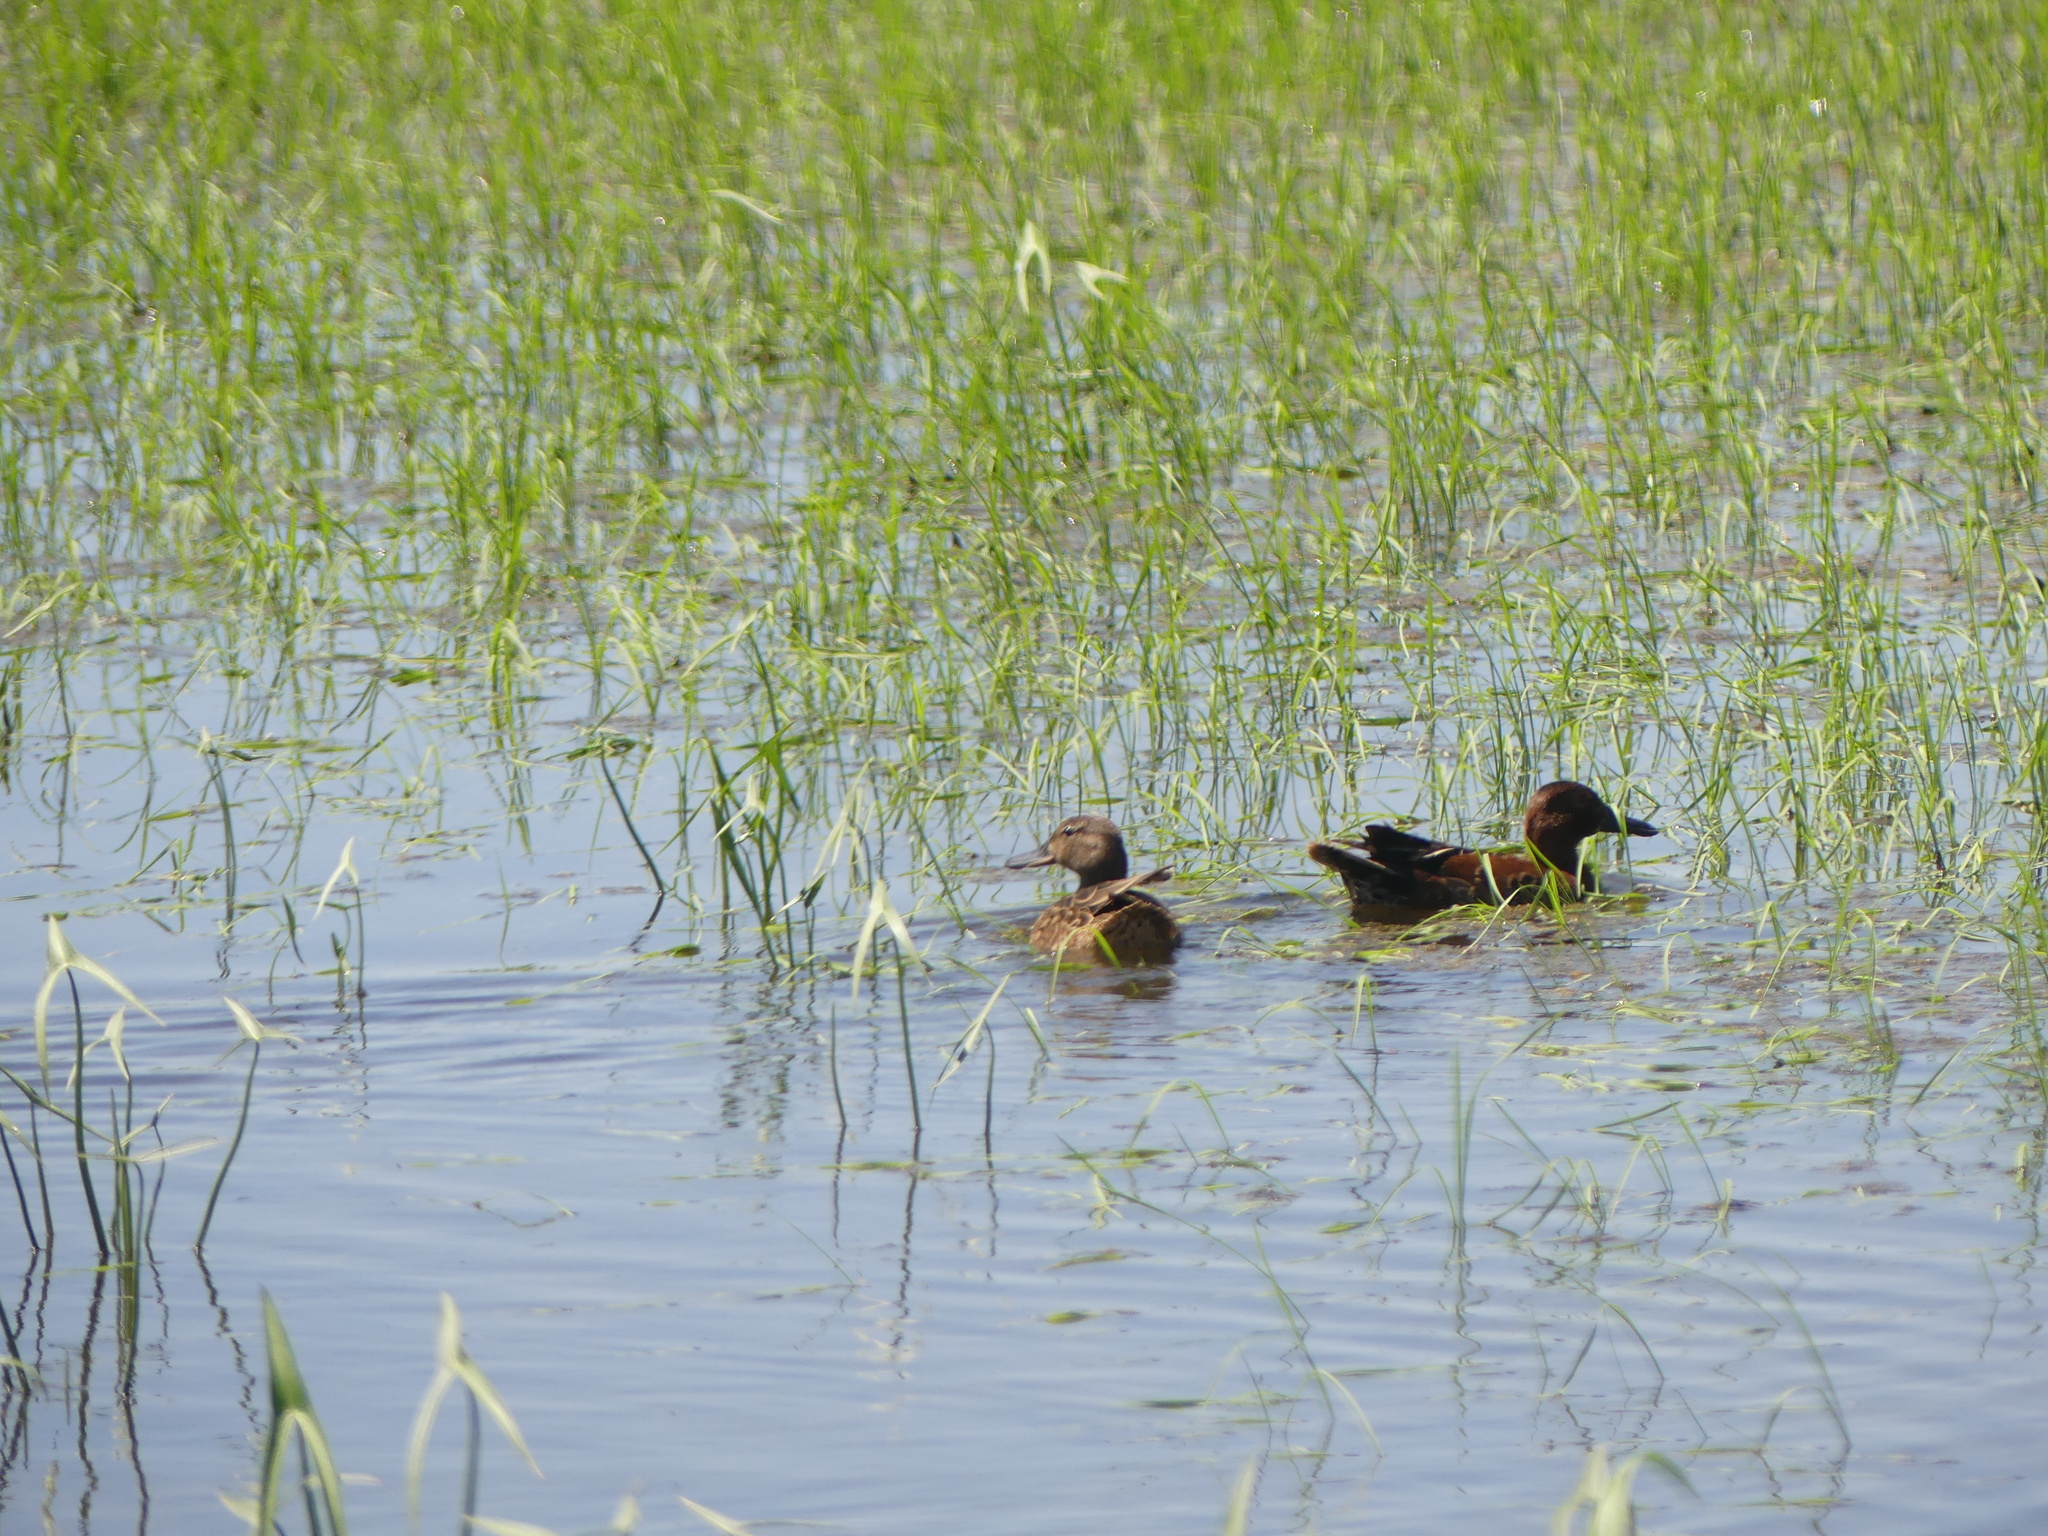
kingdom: Animalia
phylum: Chordata
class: Aves
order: Anseriformes
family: Anatidae
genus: Spatula
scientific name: Spatula cyanoptera
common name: Cinnamon teal
